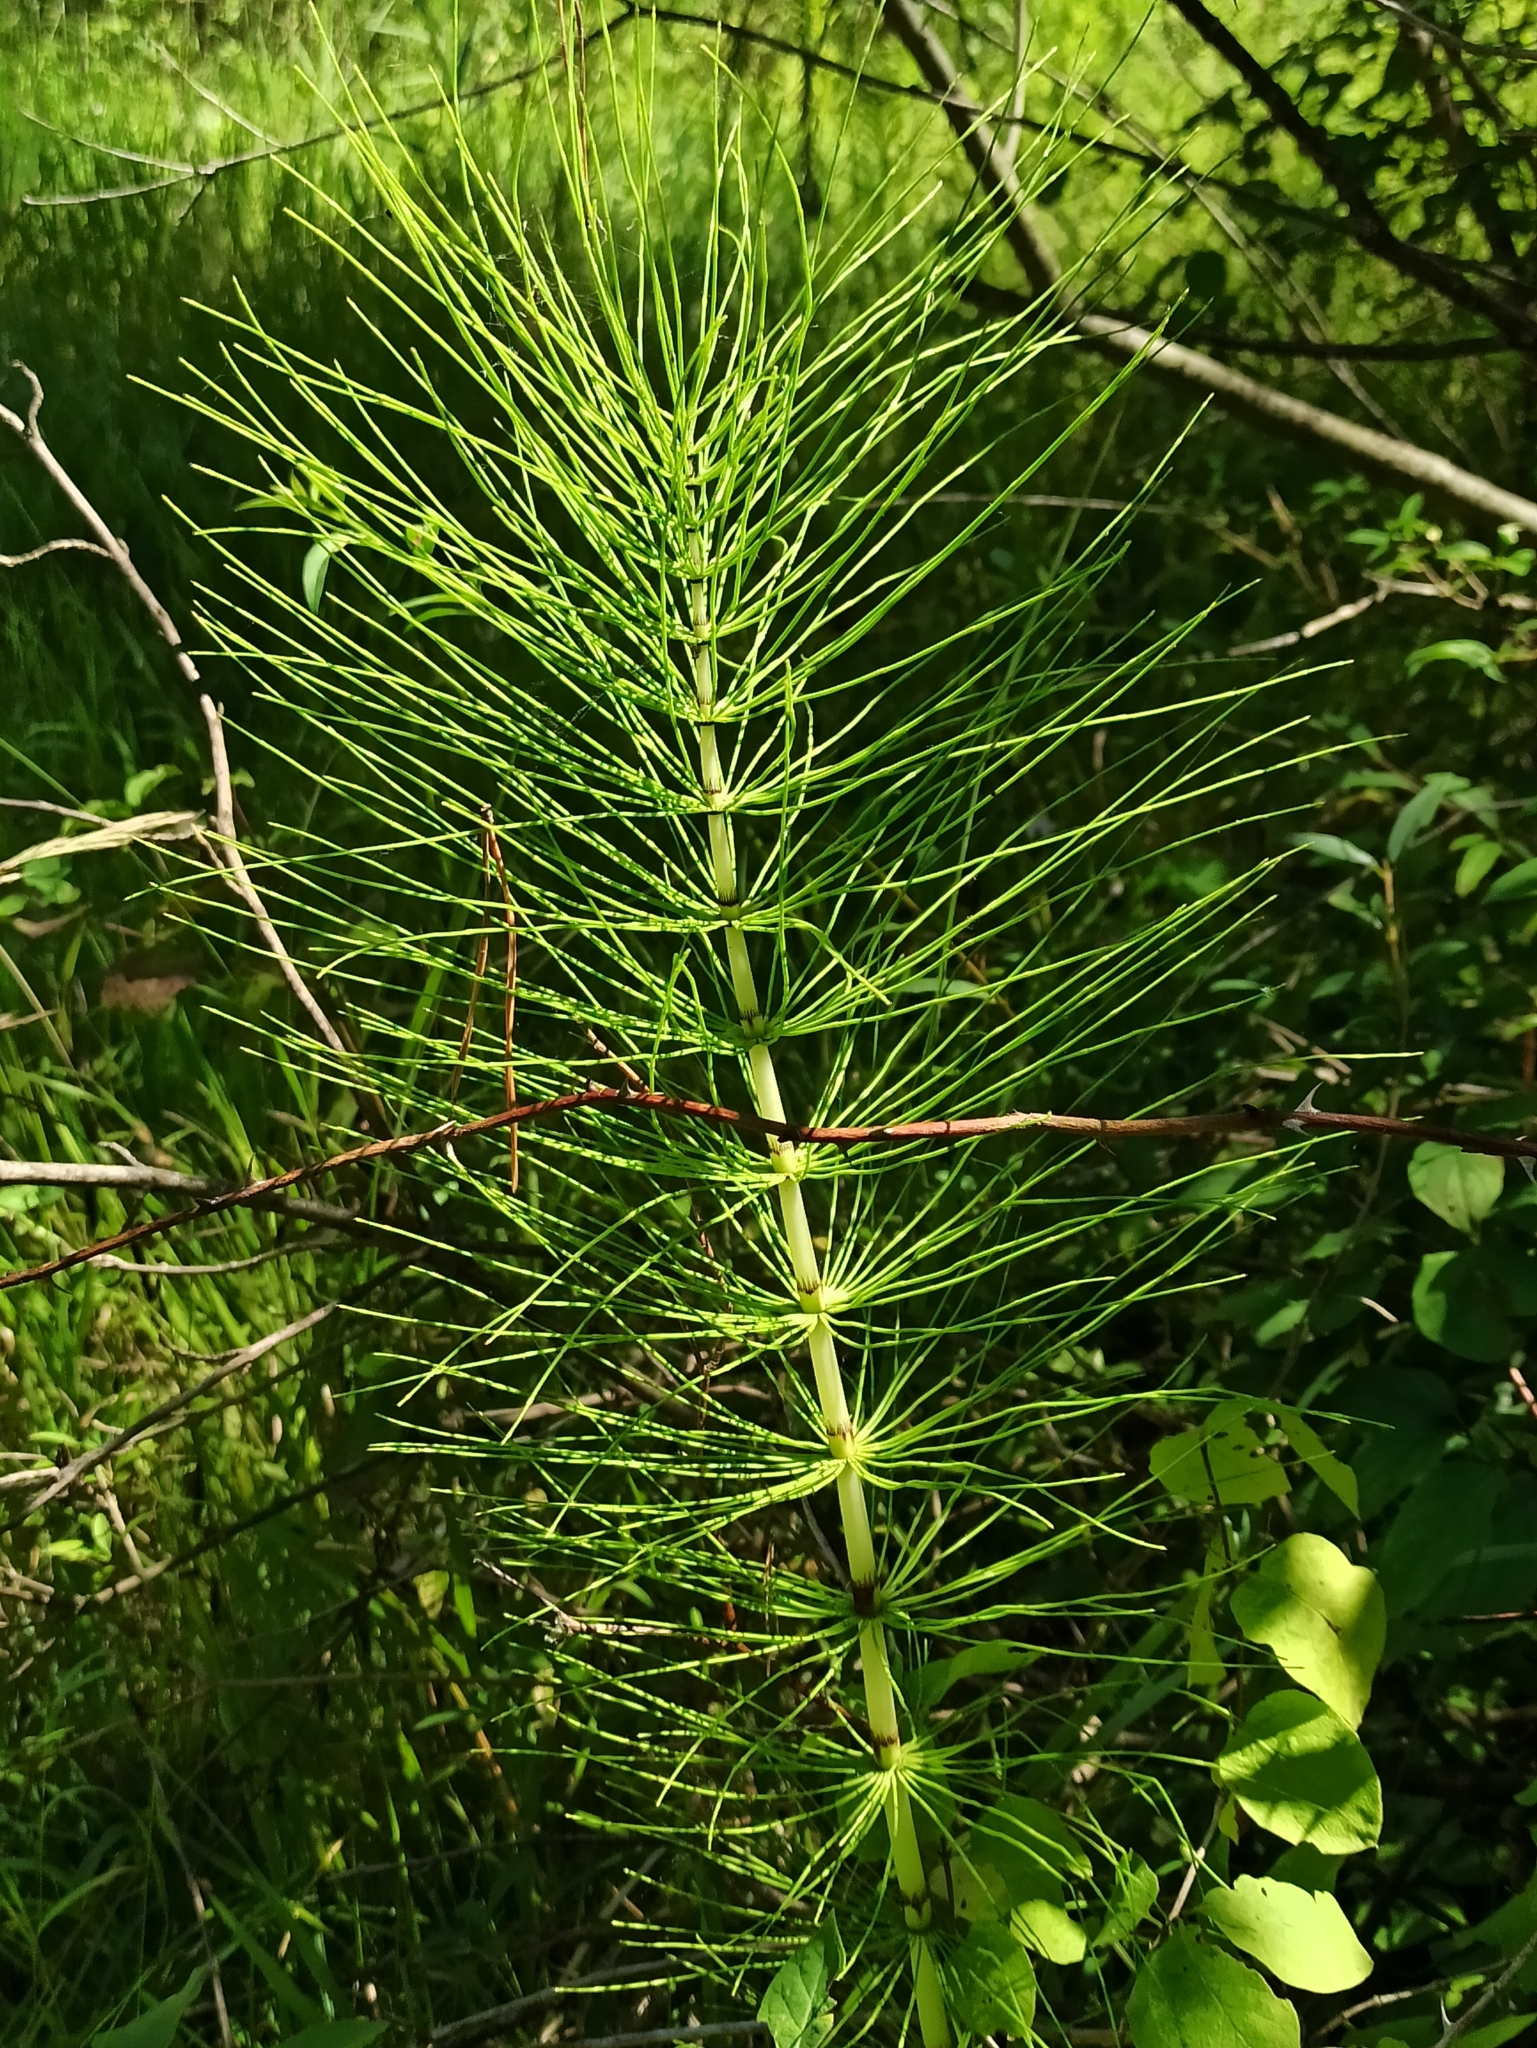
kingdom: Plantae
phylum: Tracheophyta
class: Polypodiopsida
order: Equisetales
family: Equisetaceae
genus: Equisetum
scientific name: Equisetum telmateia
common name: Great horsetail
